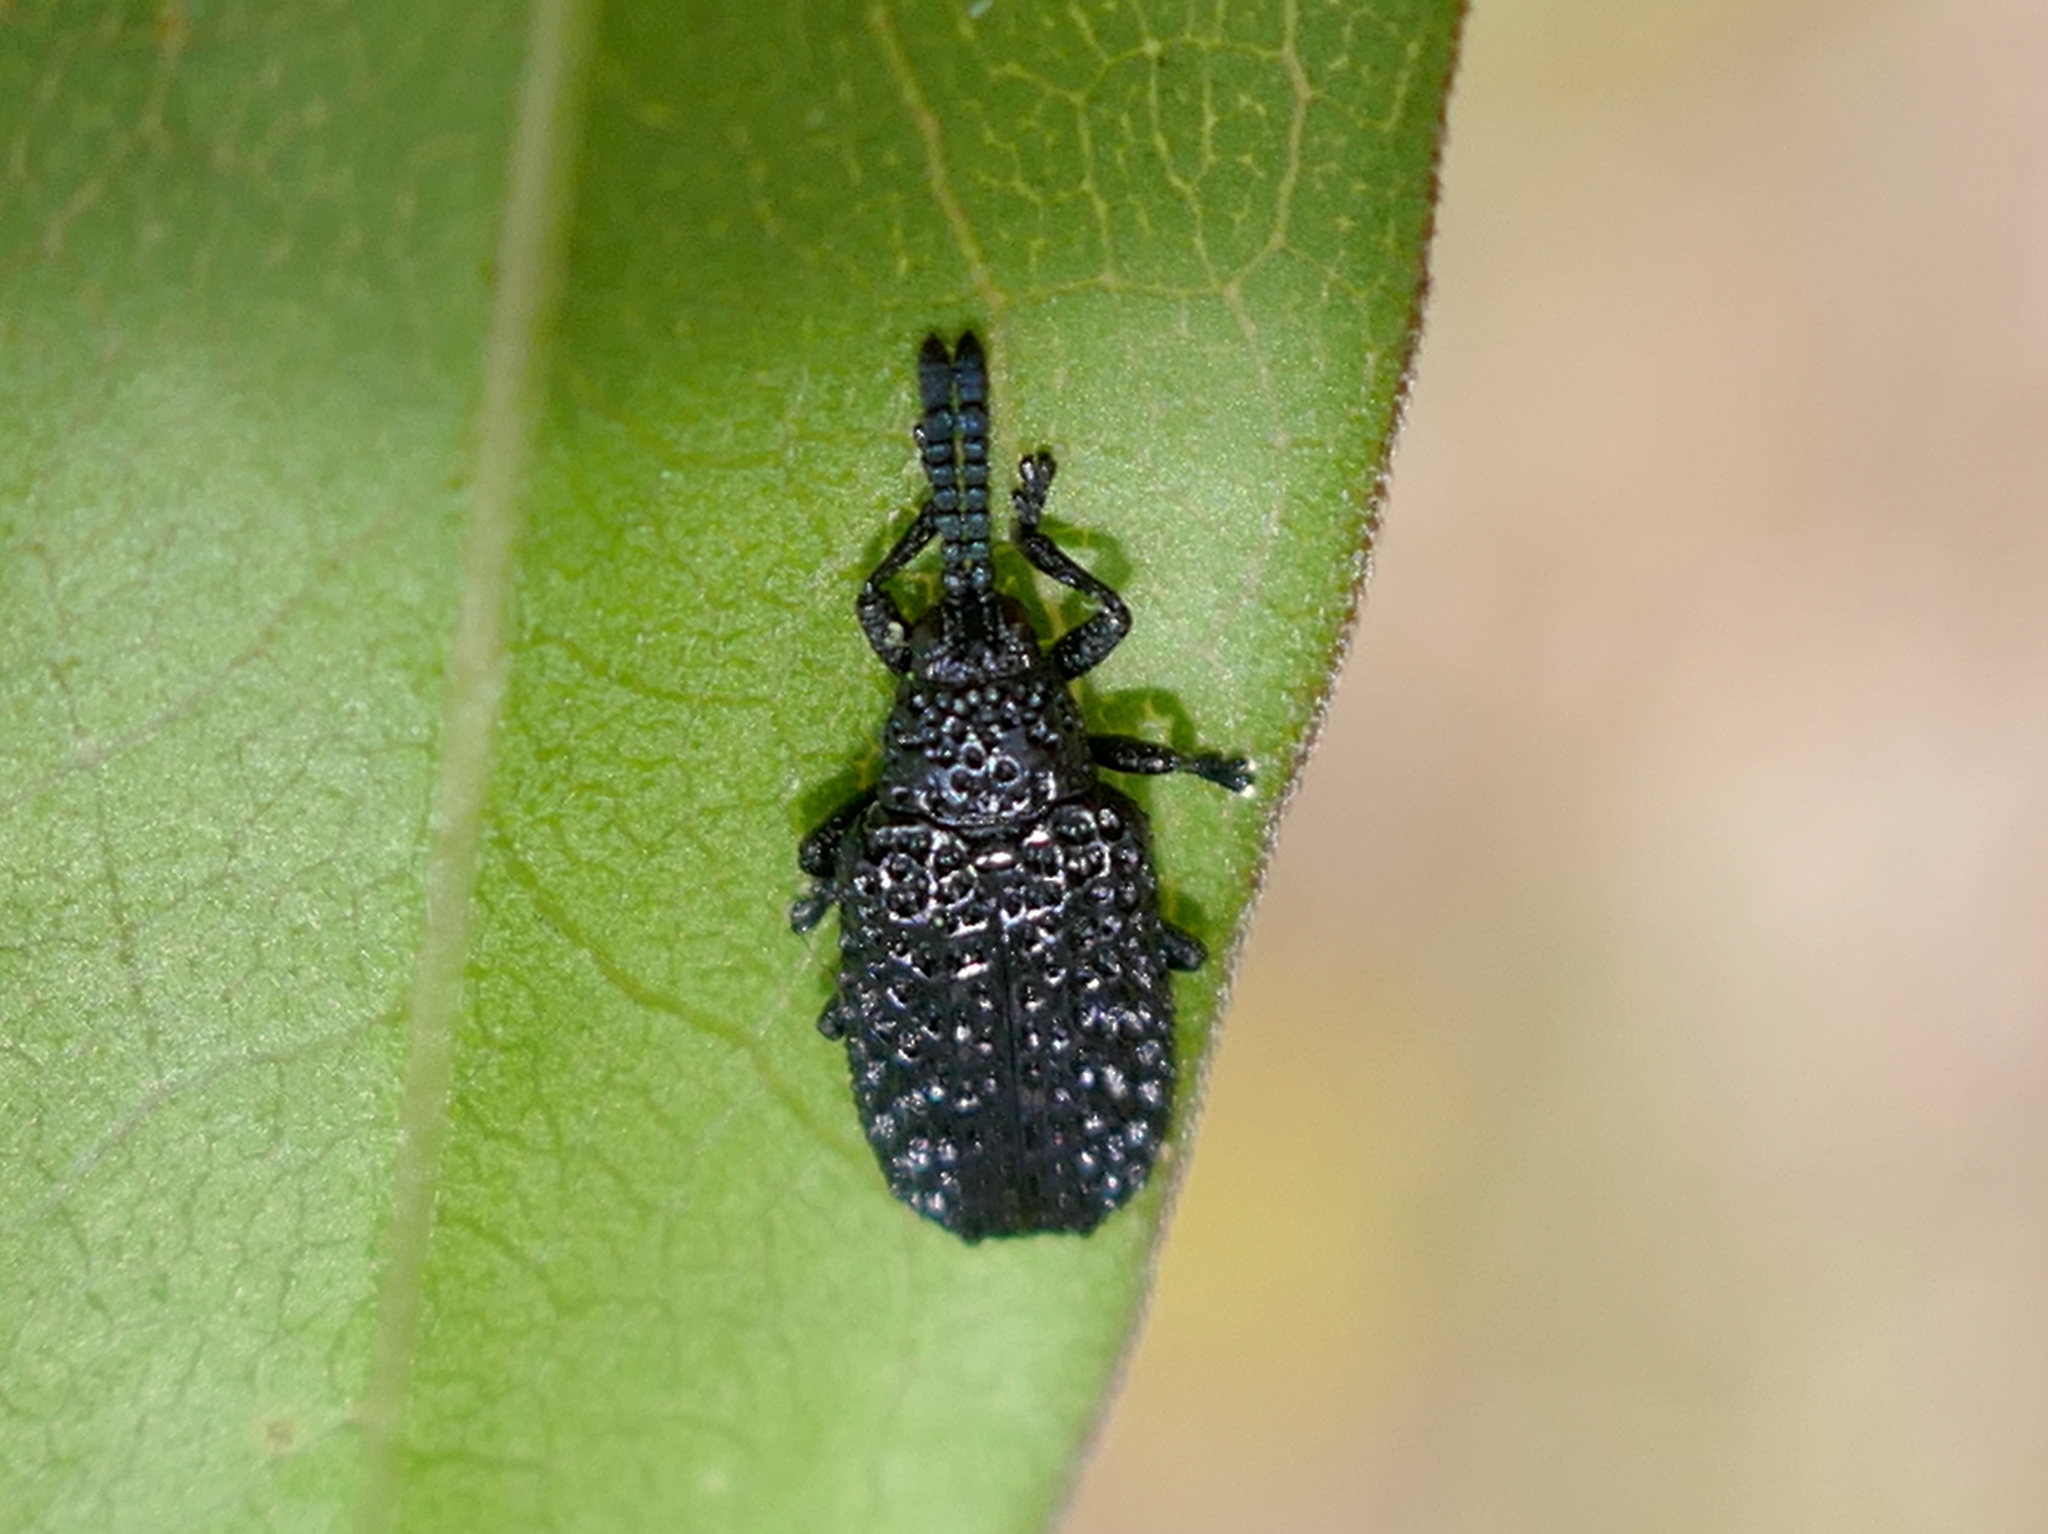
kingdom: Animalia
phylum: Arthropoda
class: Insecta
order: Coleoptera
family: Chrysomelidae
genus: Microrhopala
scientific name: Microrhopala erebus
